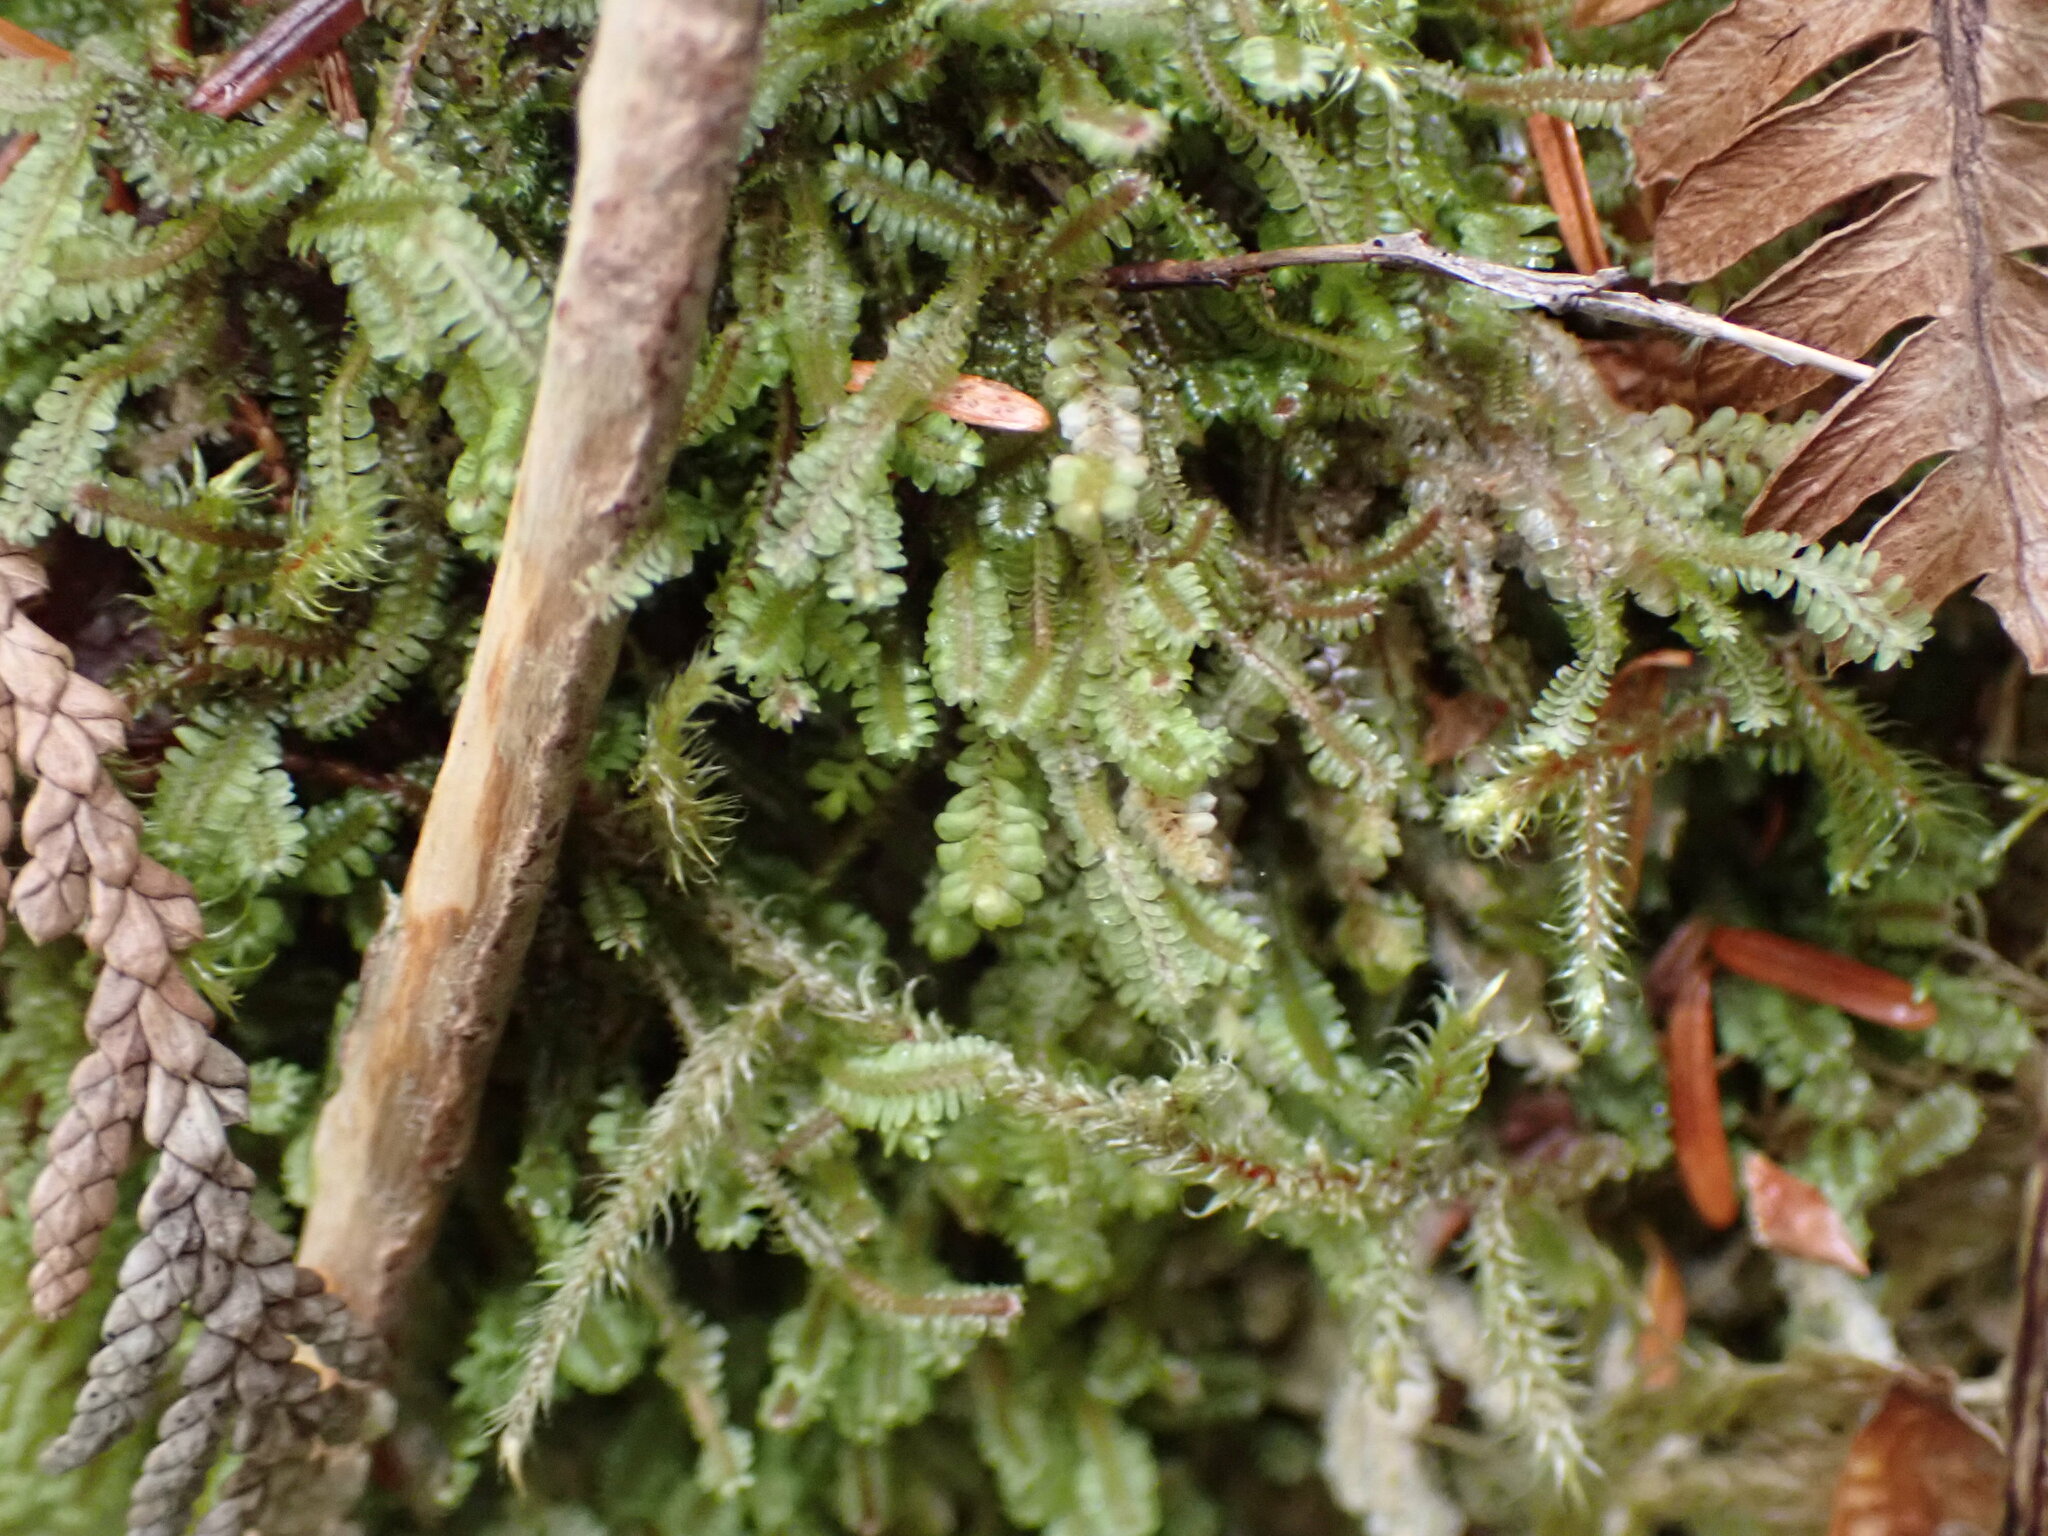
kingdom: Plantae
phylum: Marchantiophyta
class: Jungermanniopsida
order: Jungermanniales
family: Scapaniaceae
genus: Diplophyllum
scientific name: Diplophyllum albicans
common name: White earwort
